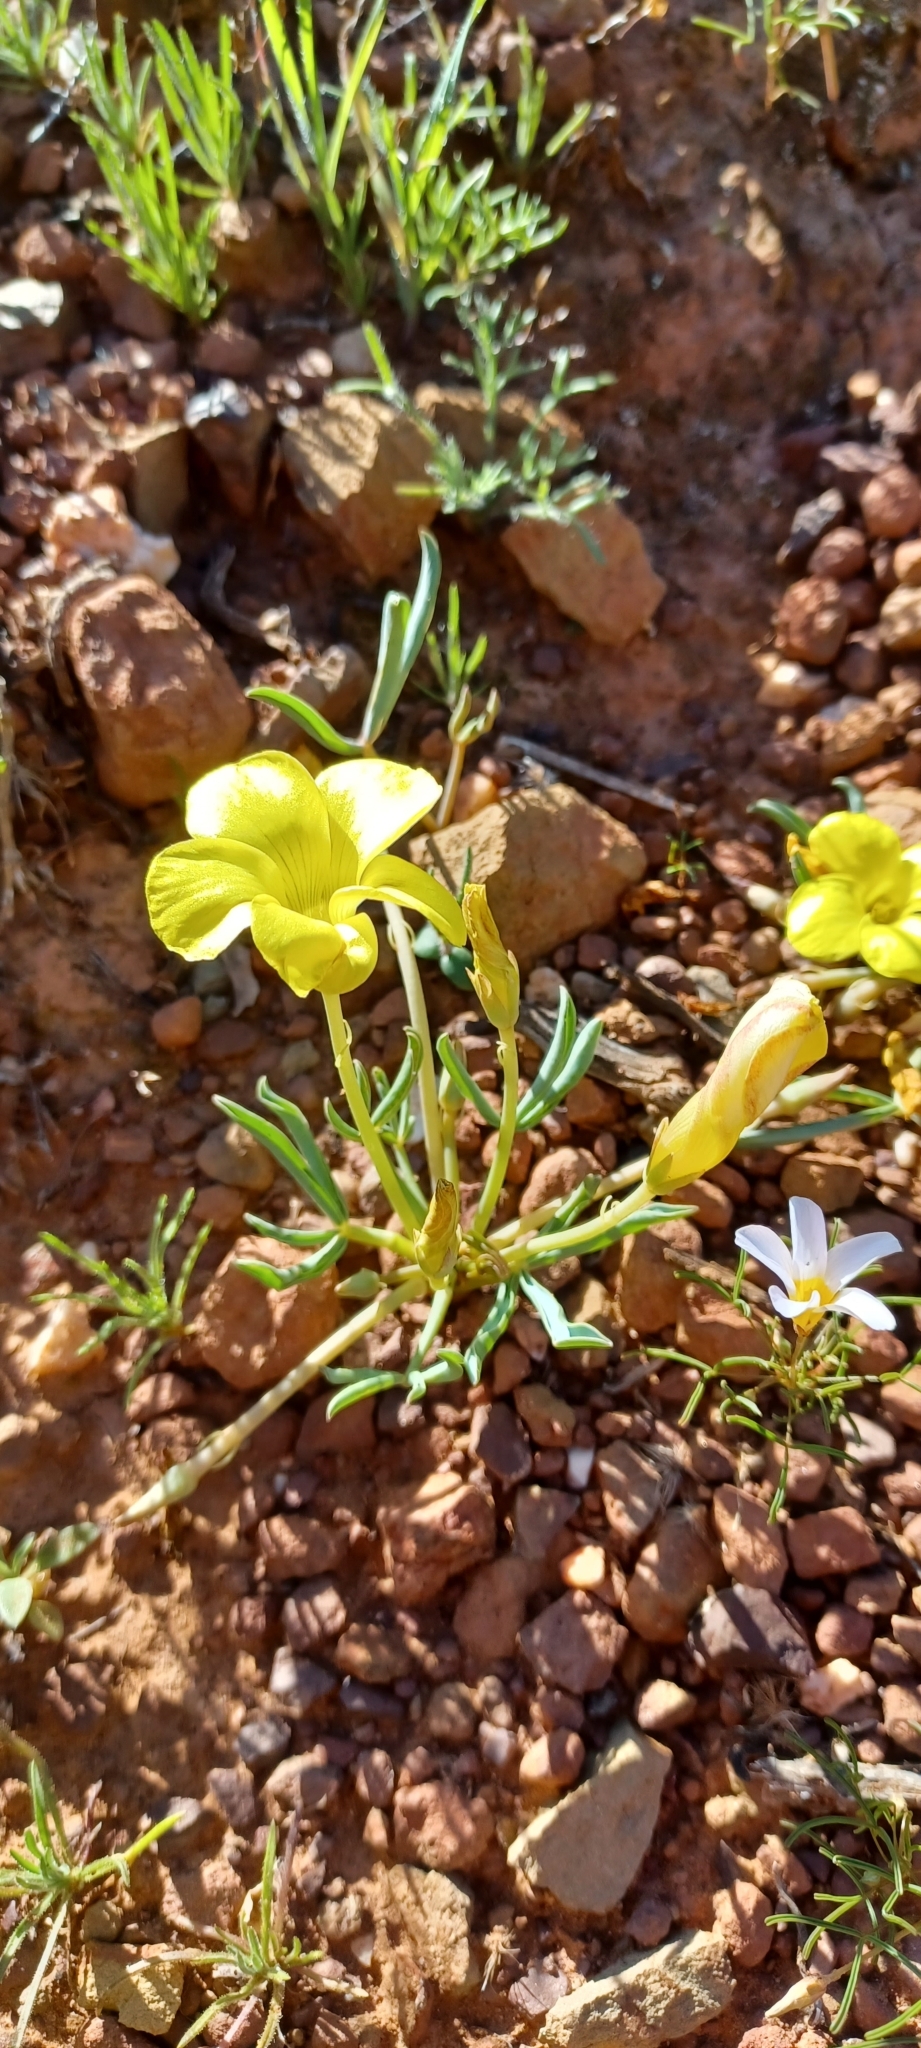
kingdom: Plantae
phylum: Tracheophyta
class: Magnoliopsida
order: Oxalidales
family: Oxalidaceae
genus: Oxalis
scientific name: Oxalis flava
